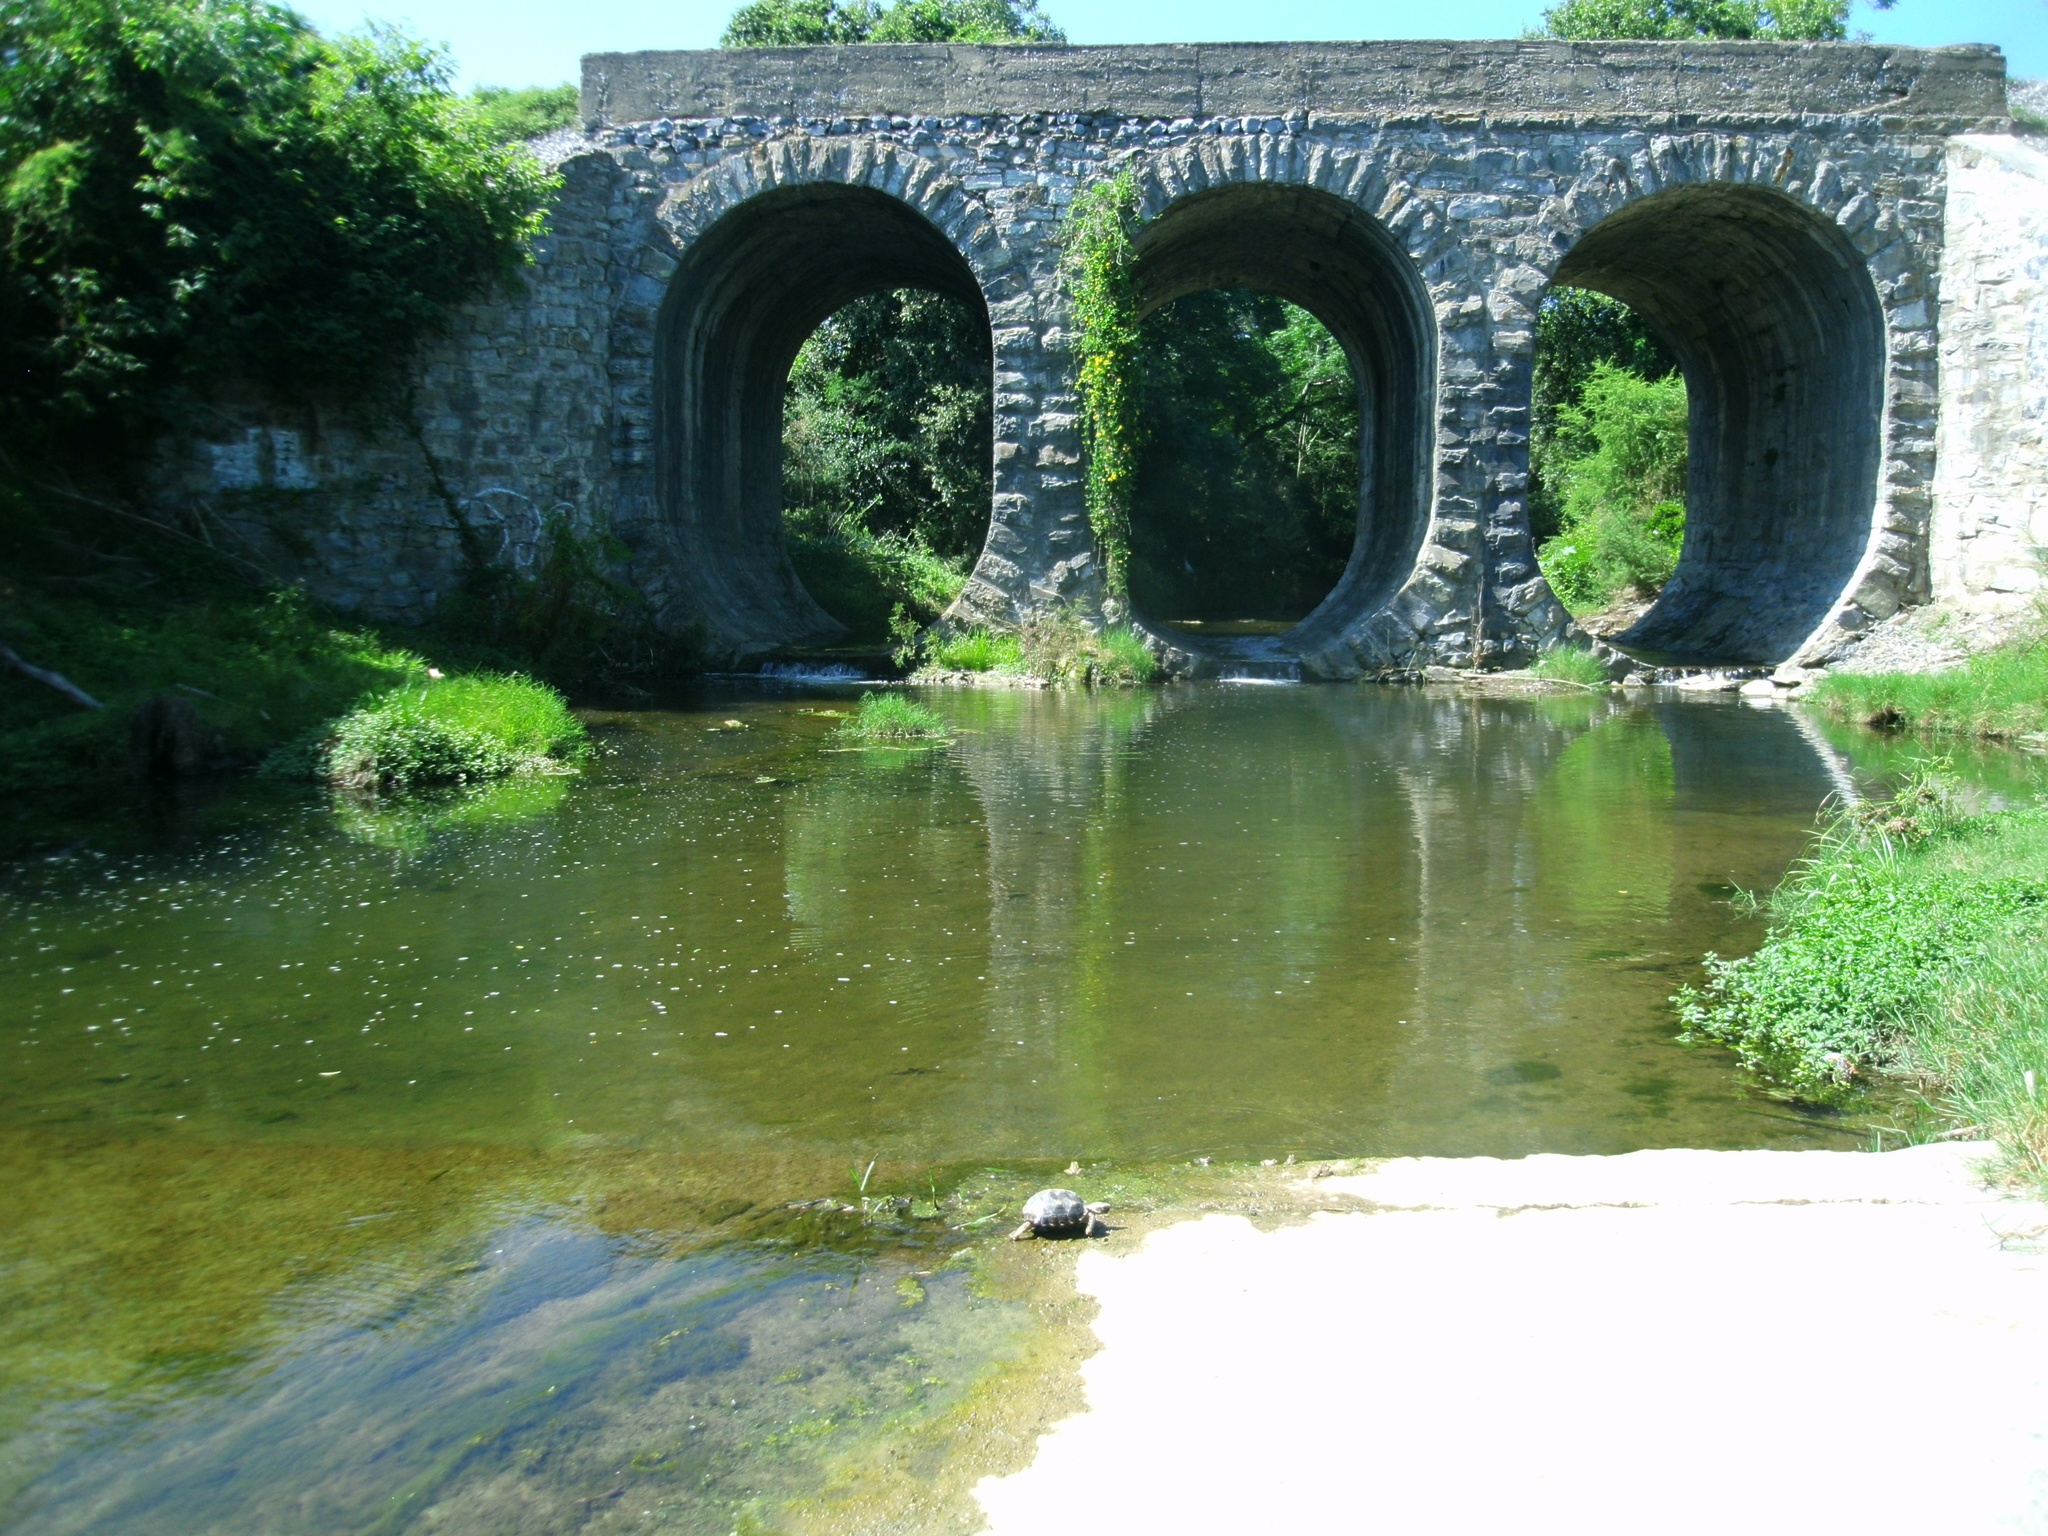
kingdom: Animalia
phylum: Chordata
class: Testudines
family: Testudinidae
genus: Gopherus
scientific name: Gopherus berlandieri
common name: Texas (gopher )tortoise
